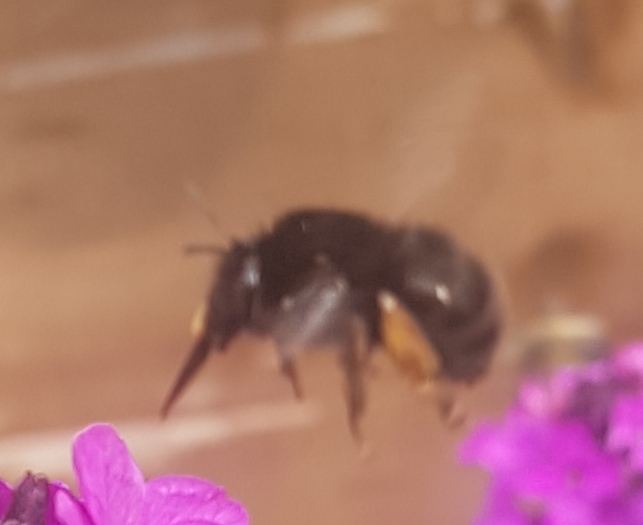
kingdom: Animalia
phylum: Arthropoda
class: Insecta
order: Hymenoptera
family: Apidae
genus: Anthophora
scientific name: Anthophora plumipes
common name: Hairy-footed flower bee
